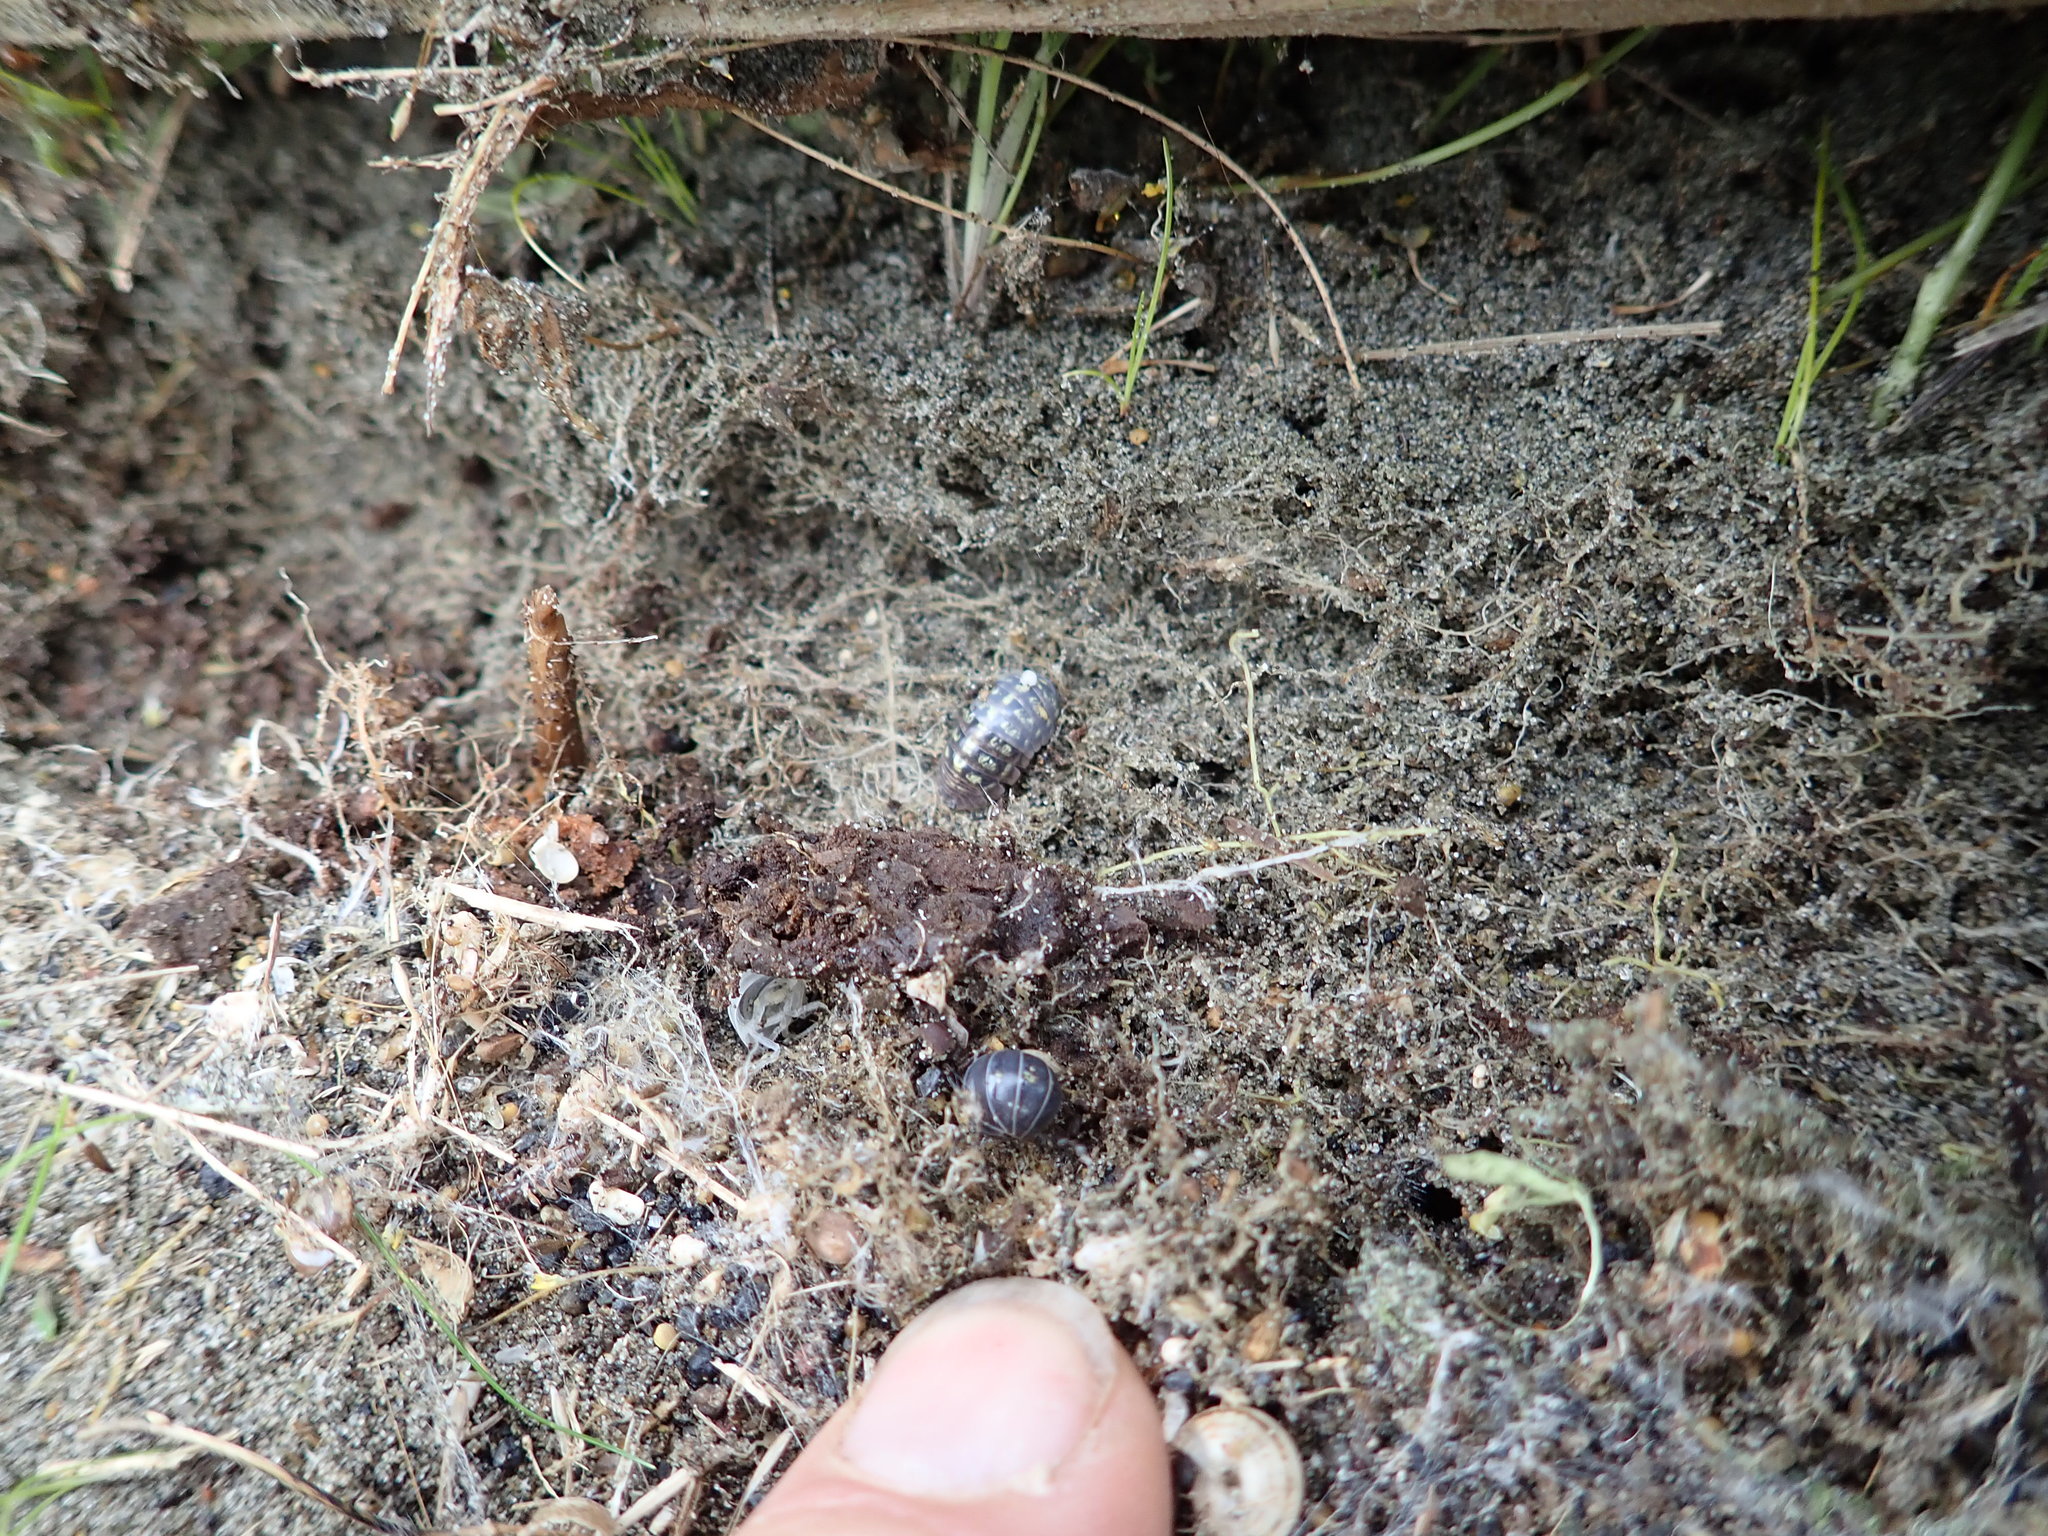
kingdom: Animalia
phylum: Arthropoda
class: Malacostraca
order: Isopoda
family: Armadillidiidae
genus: Armadillidium
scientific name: Armadillidium vulgare
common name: Common pill woodlouse
